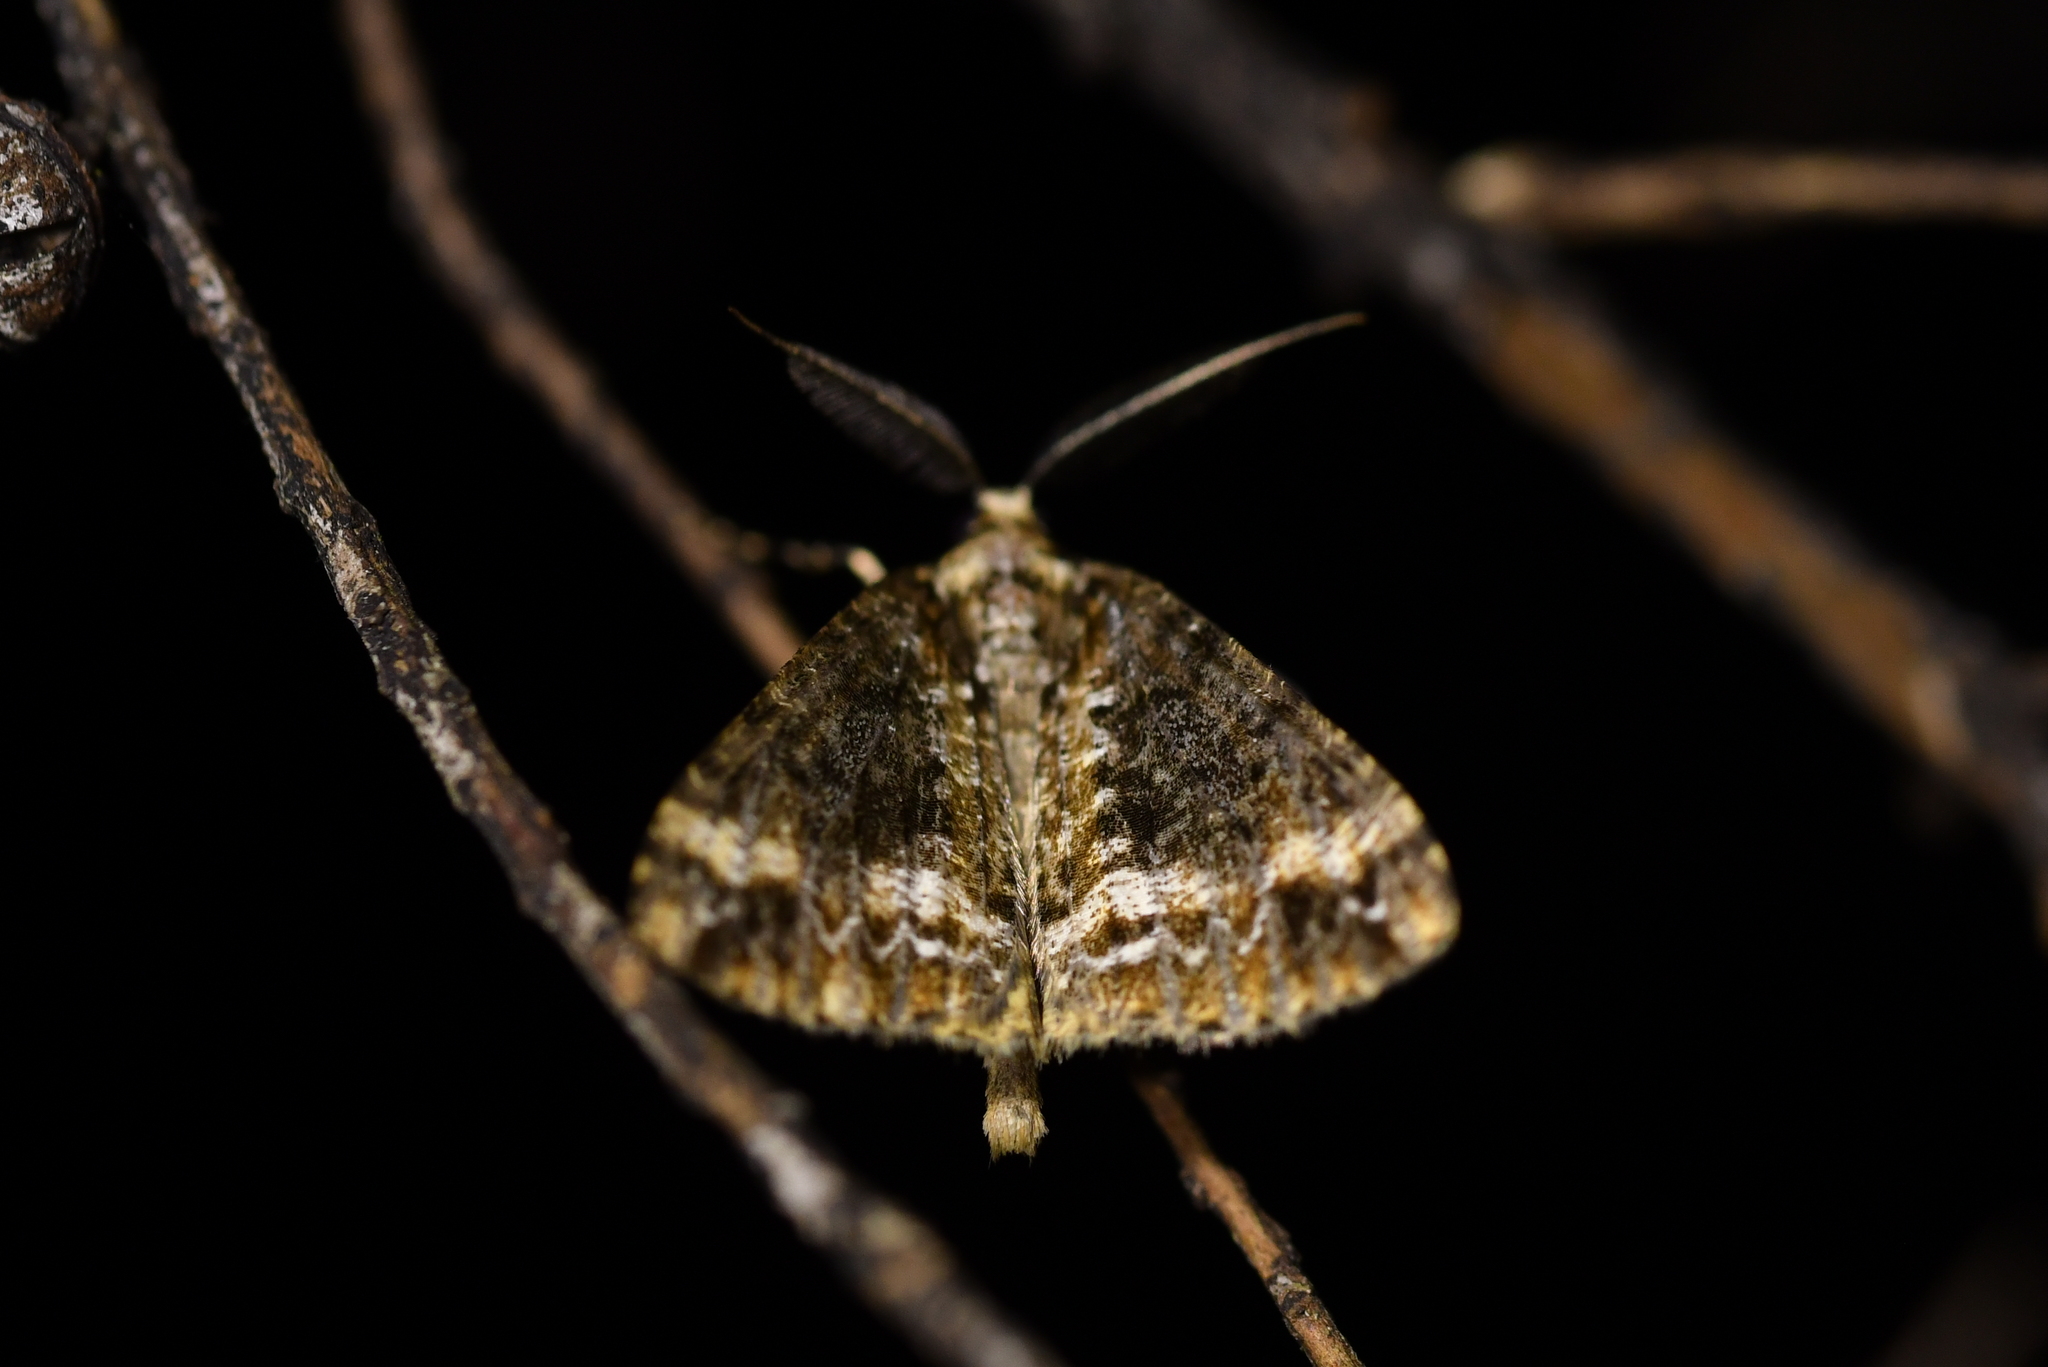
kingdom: Animalia
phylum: Arthropoda
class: Insecta
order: Lepidoptera
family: Geometridae
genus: Pseudocoremia
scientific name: Pseudocoremia leucelaea
